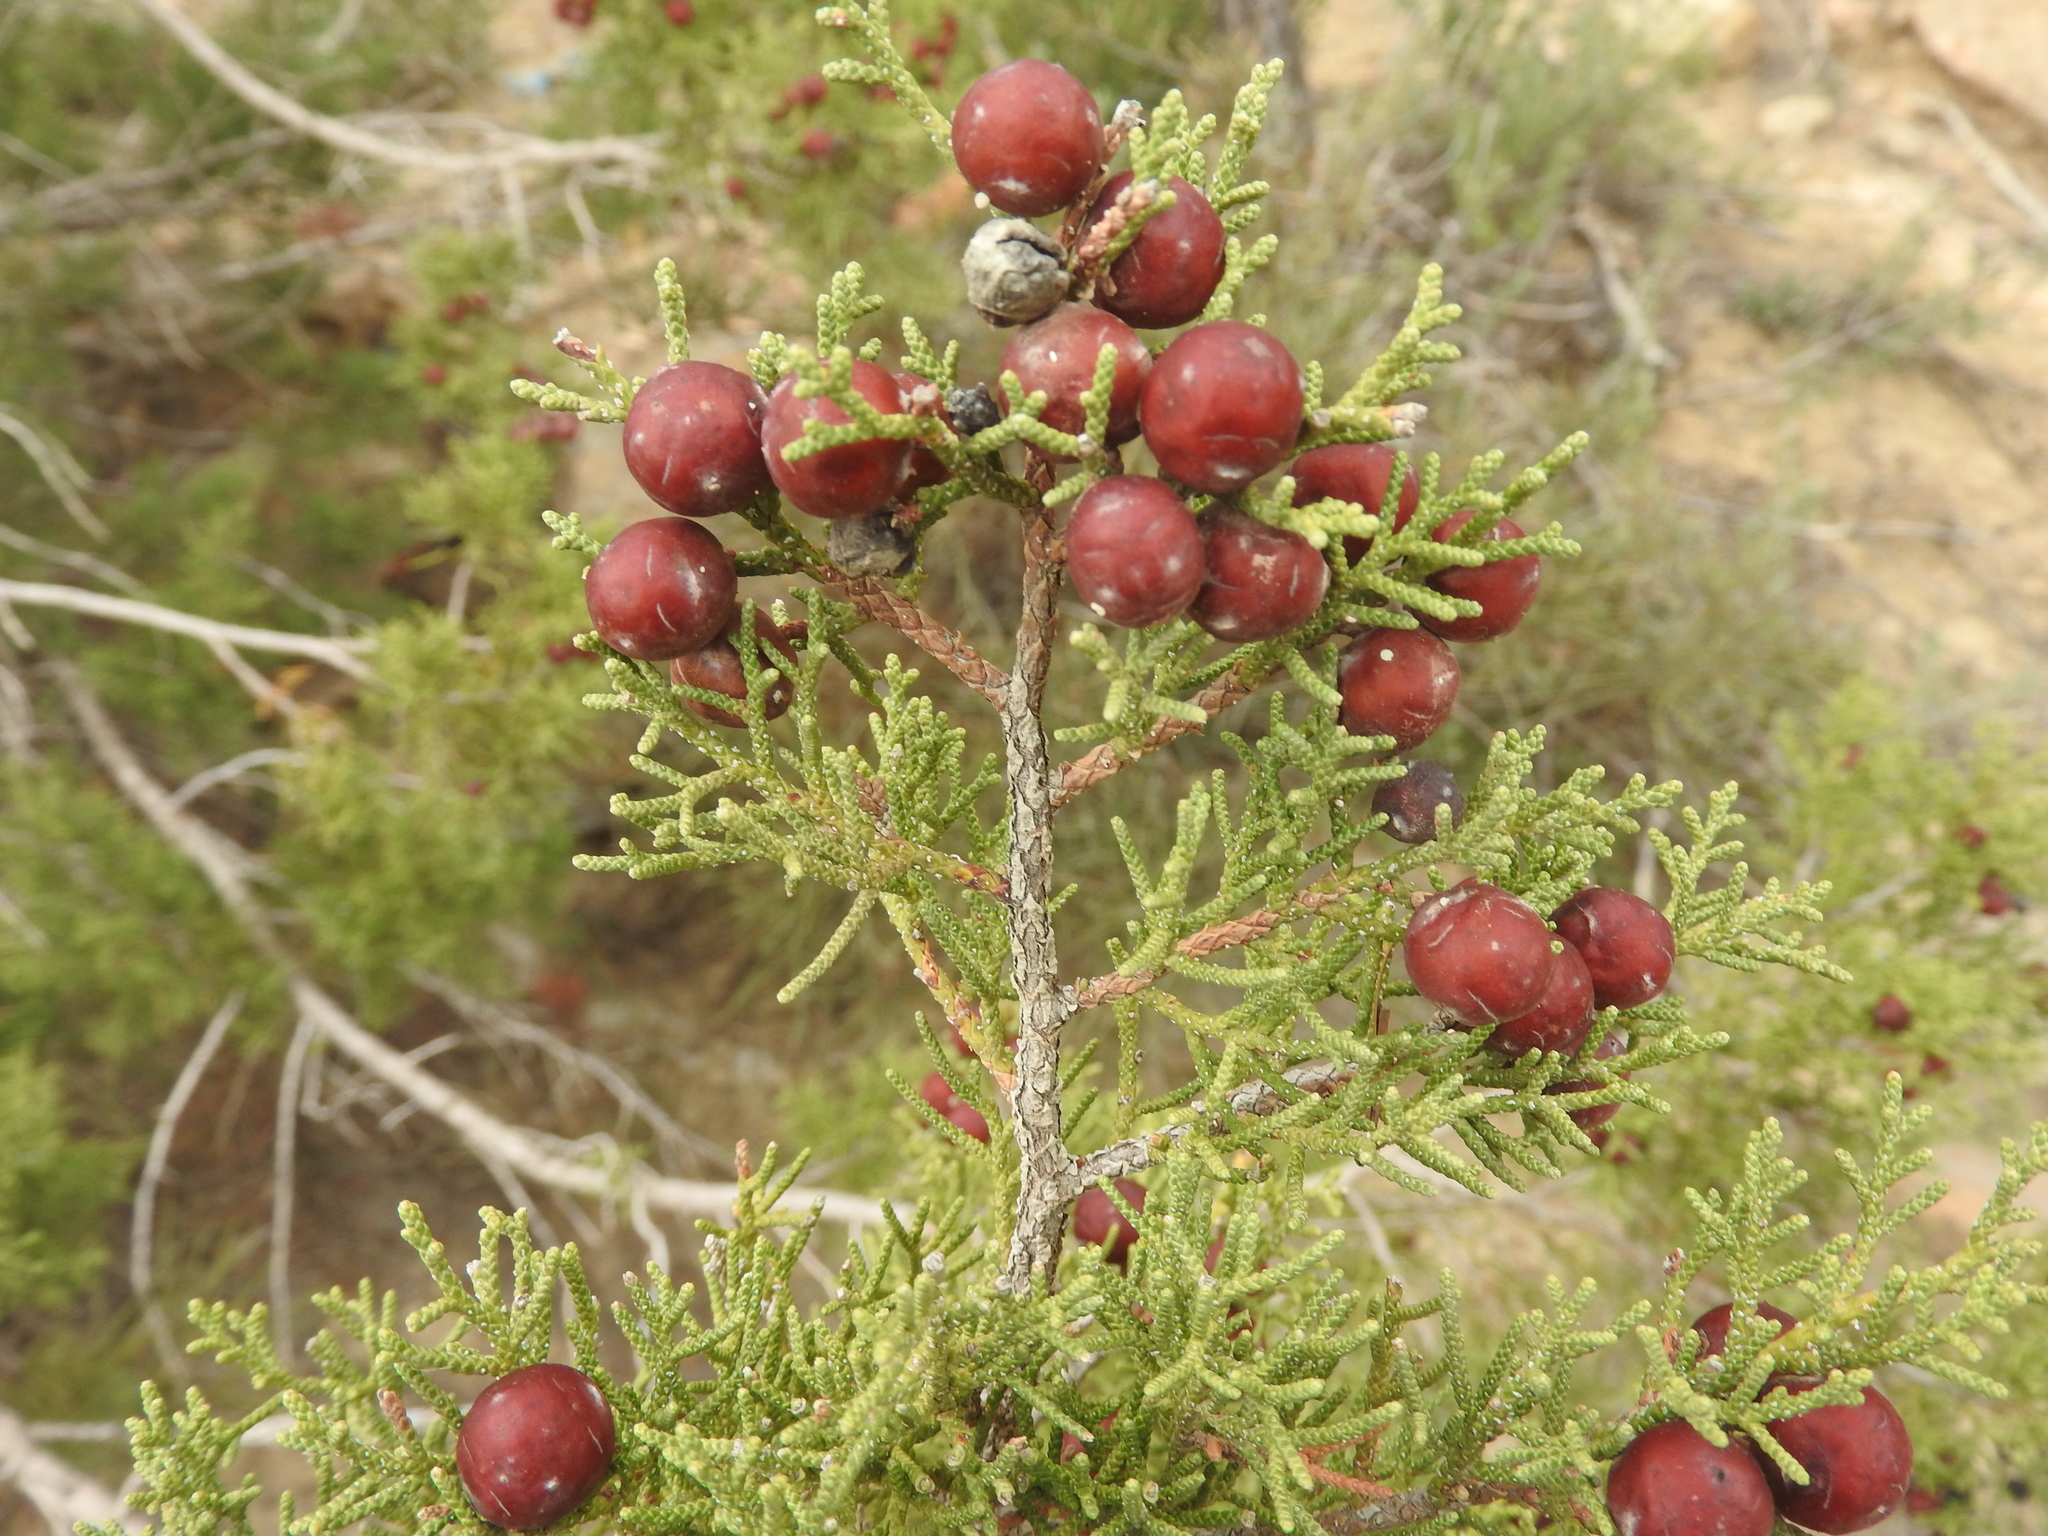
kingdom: Plantae
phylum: Tracheophyta
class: Pinopsida
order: Pinales
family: Cupressaceae
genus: Juniperus
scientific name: Juniperus phoenicea
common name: Phoenician juniper
